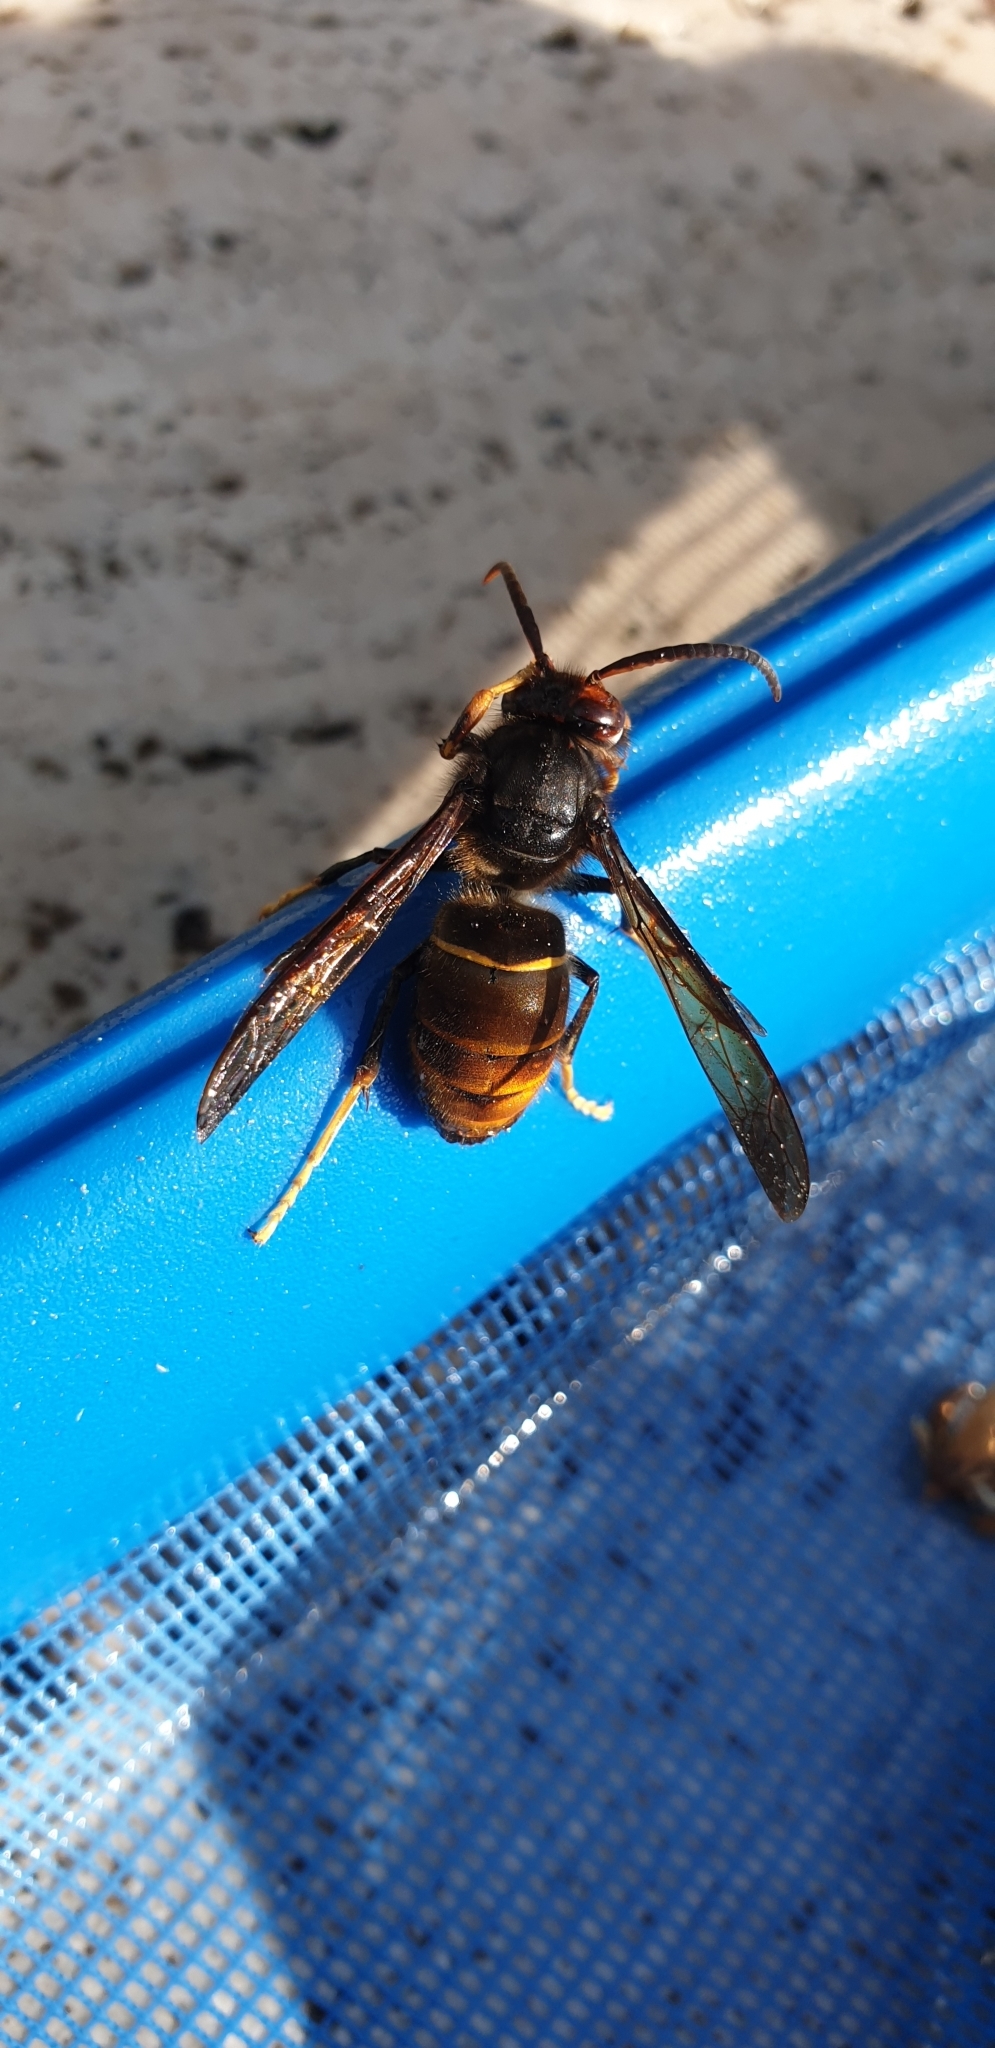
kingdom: Animalia
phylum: Arthropoda
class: Insecta
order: Hymenoptera
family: Vespidae
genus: Vespa
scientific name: Vespa velutina
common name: Asian hornet
